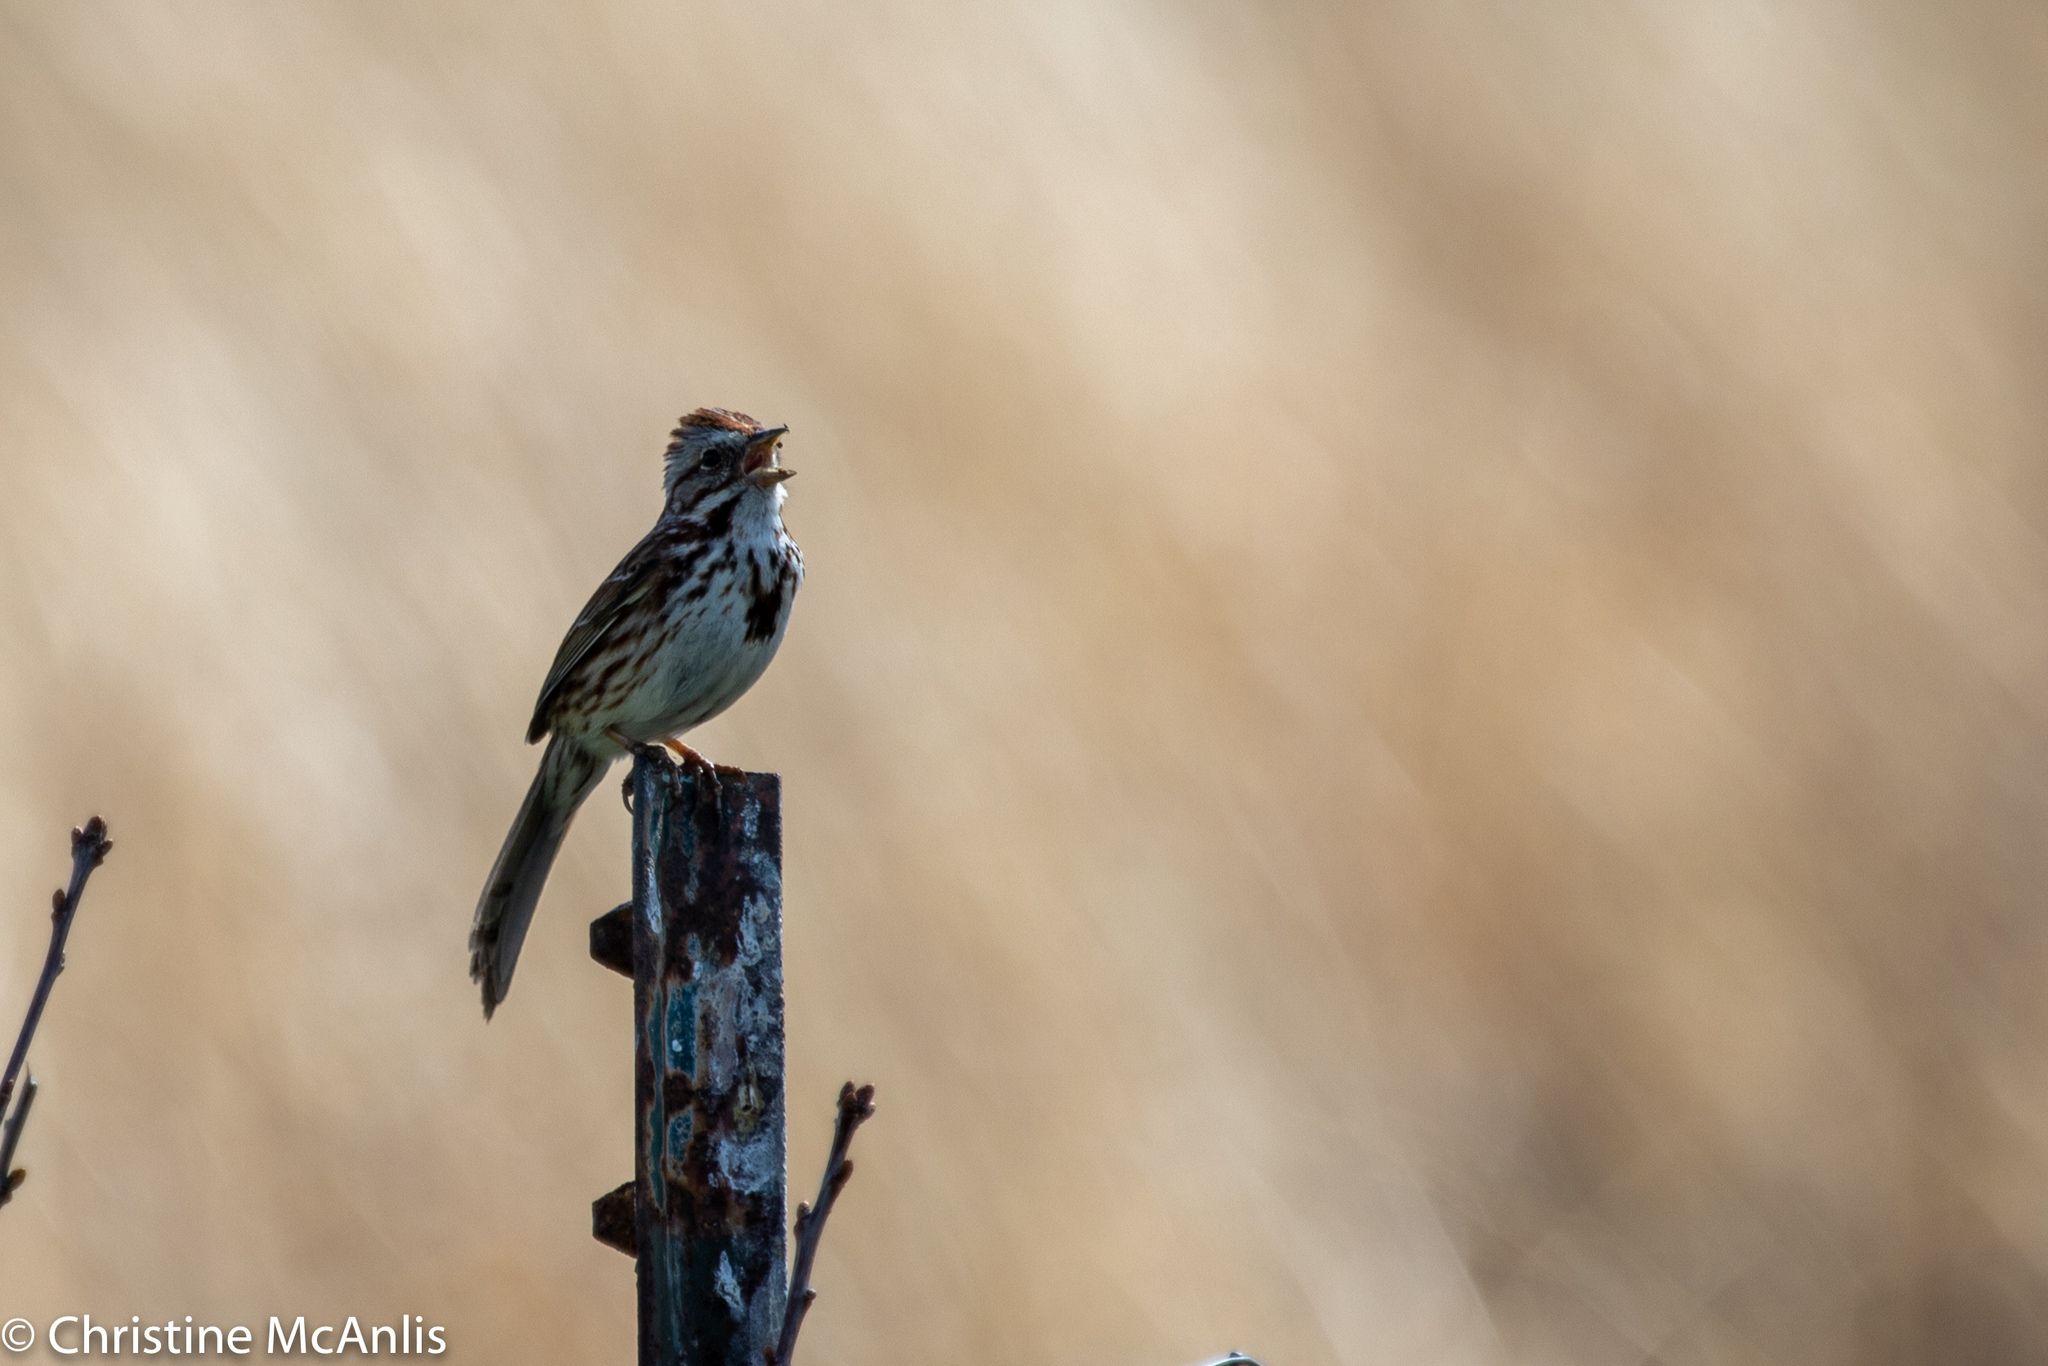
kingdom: Animalia
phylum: Chordata
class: Aves
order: Passeriformes
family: Passerellidae
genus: Melospiza
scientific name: Melospiza melodia
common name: Song sparrow
